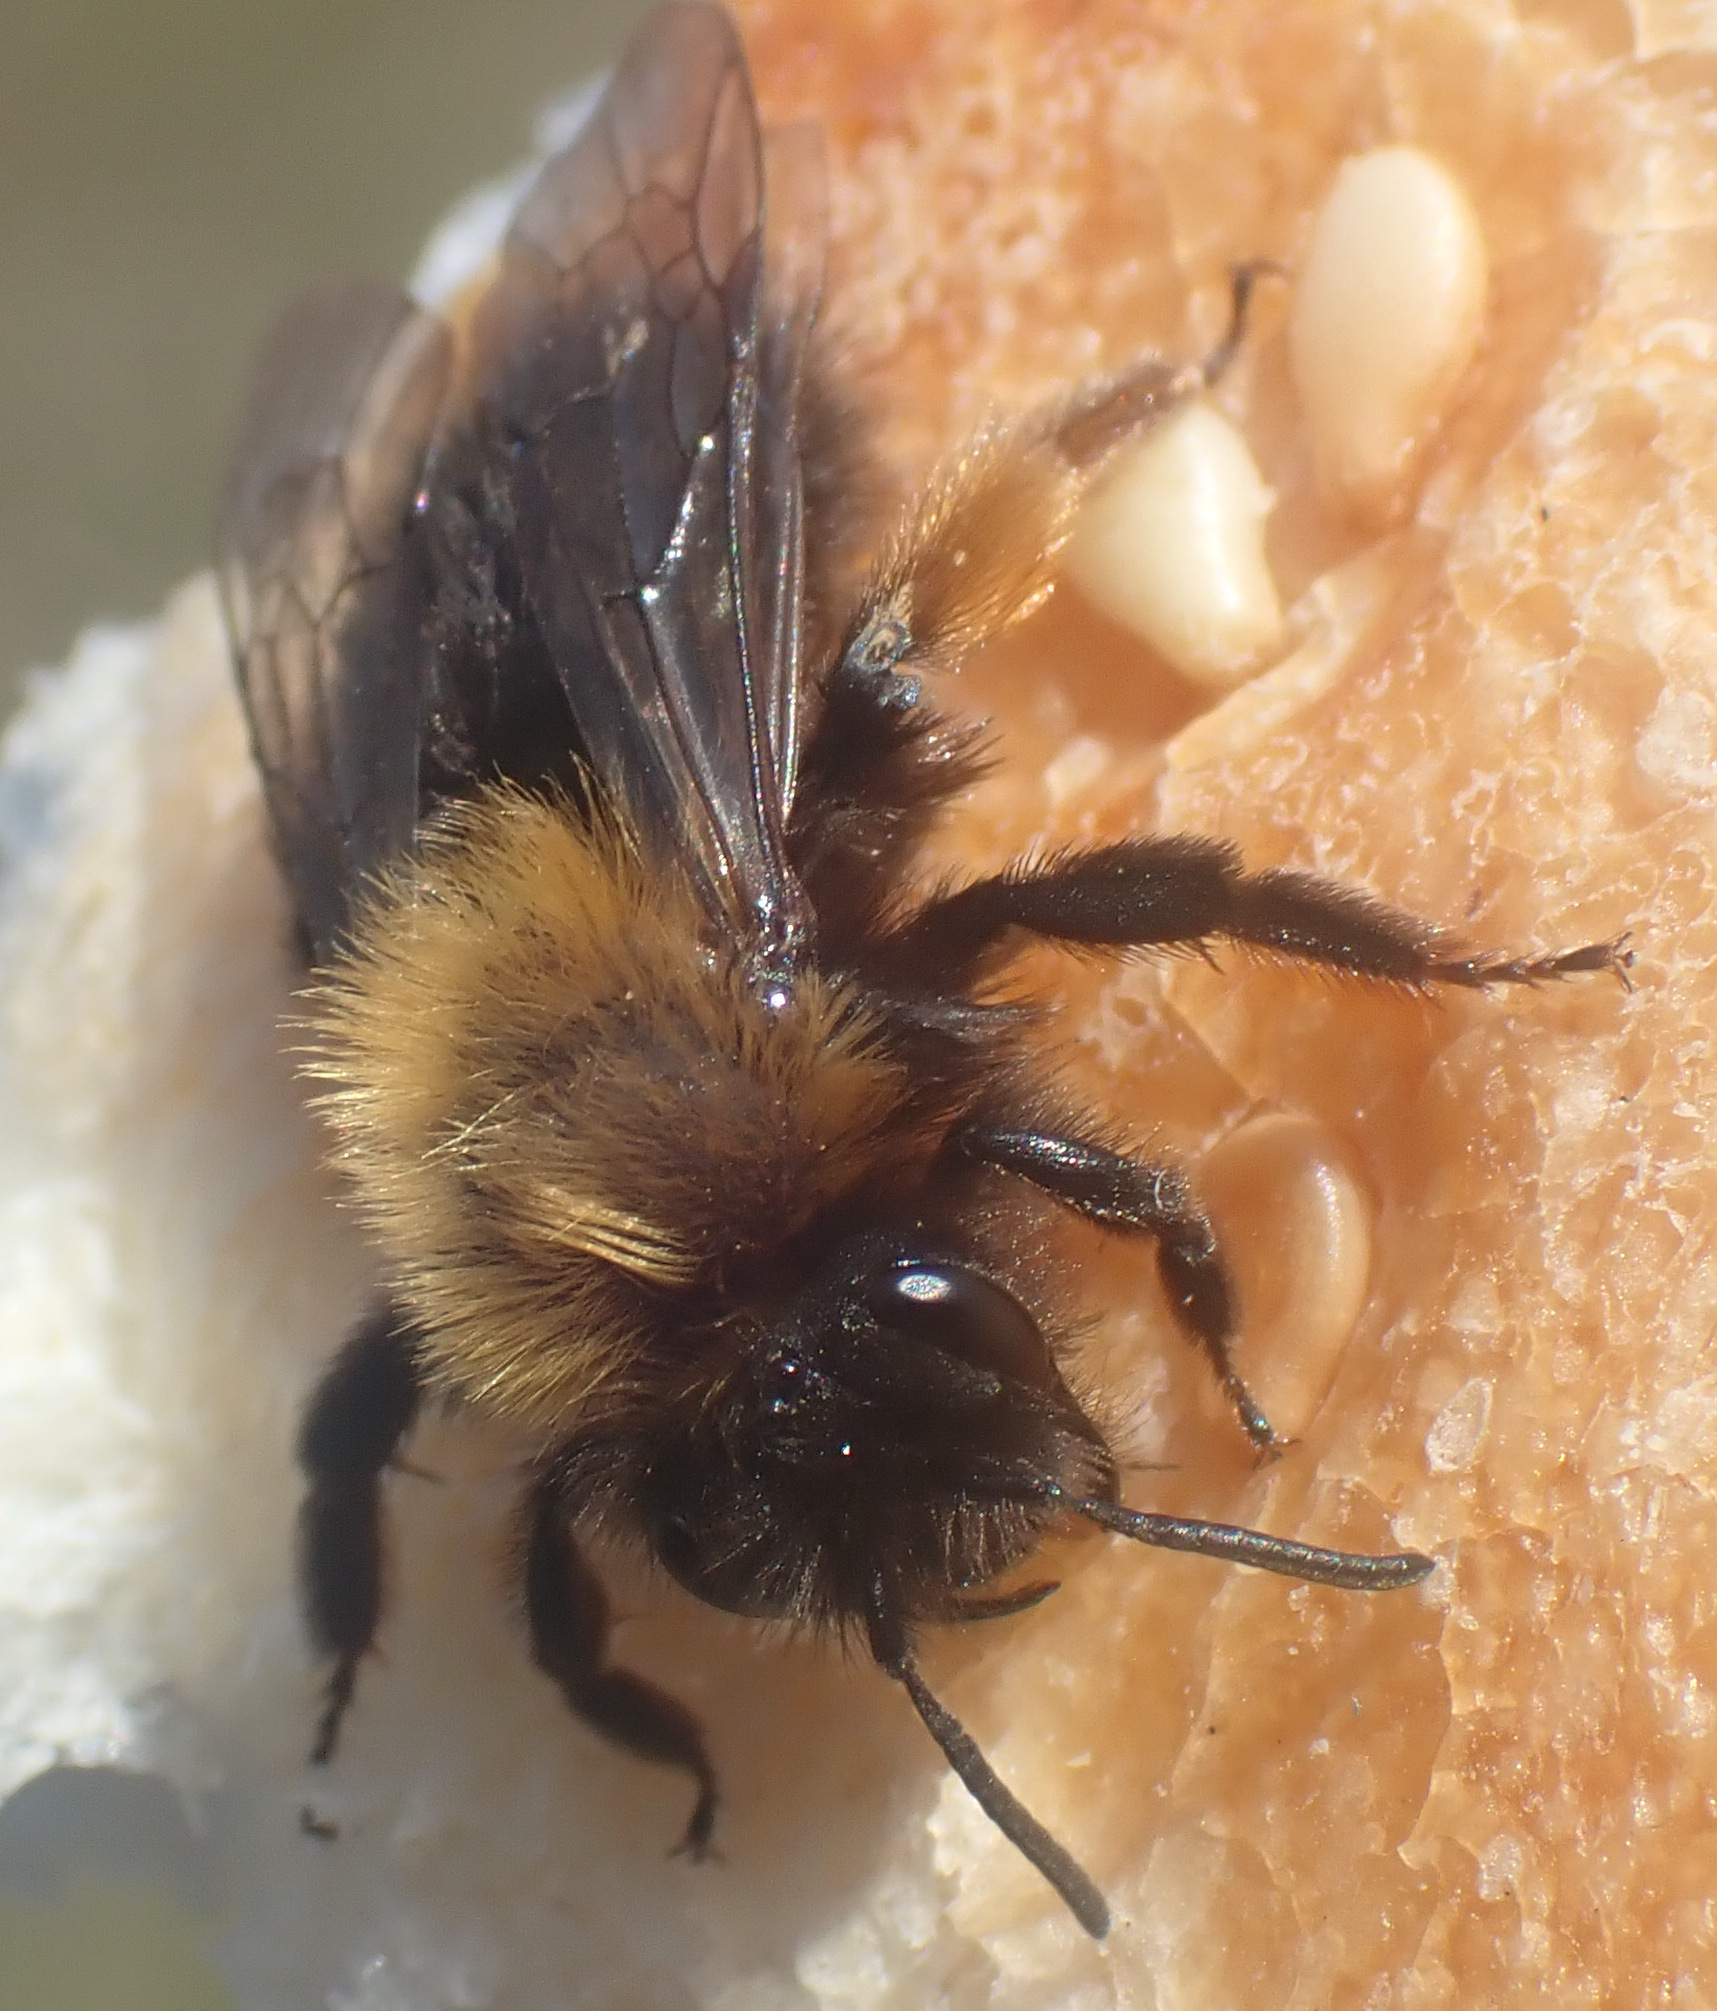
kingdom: Animalia
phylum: Arthropoda
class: Insecta
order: Hymenoptera
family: Andrenidae
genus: Andrena
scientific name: Andrena clarkella
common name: Clarke's mining bee
